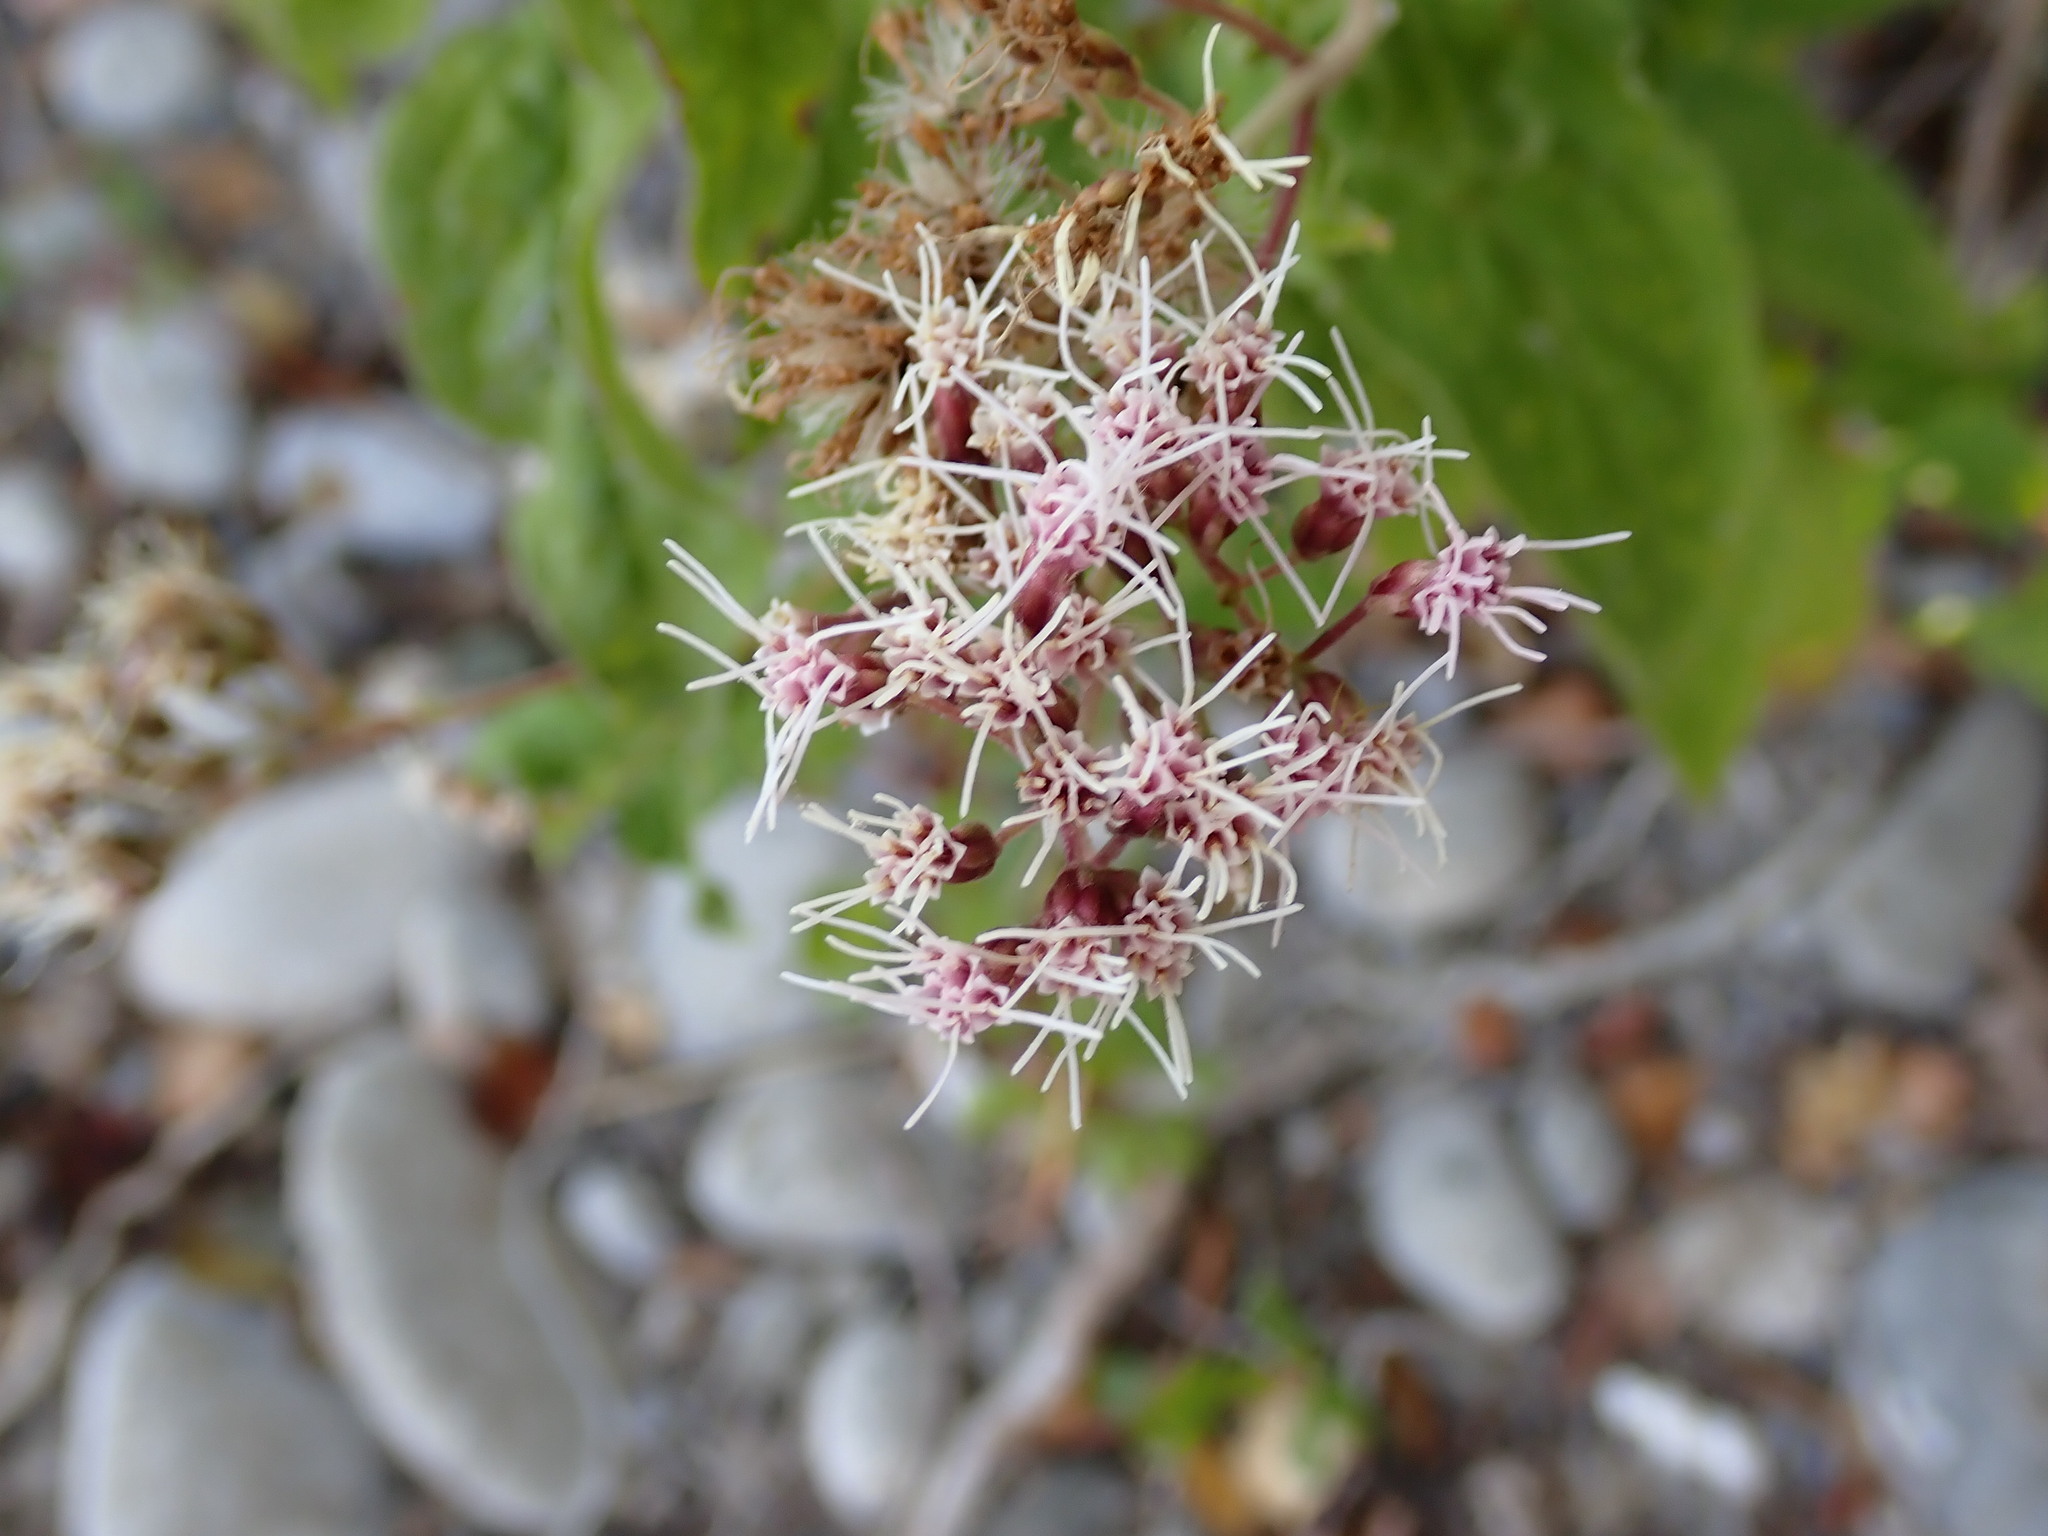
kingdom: Plantae
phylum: Tracheophyta
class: Magnoliopsida
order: Asterales
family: Asteraceae
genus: Eupatorium
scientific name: Eupatorium cannabinum
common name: Hemp-agrimony
